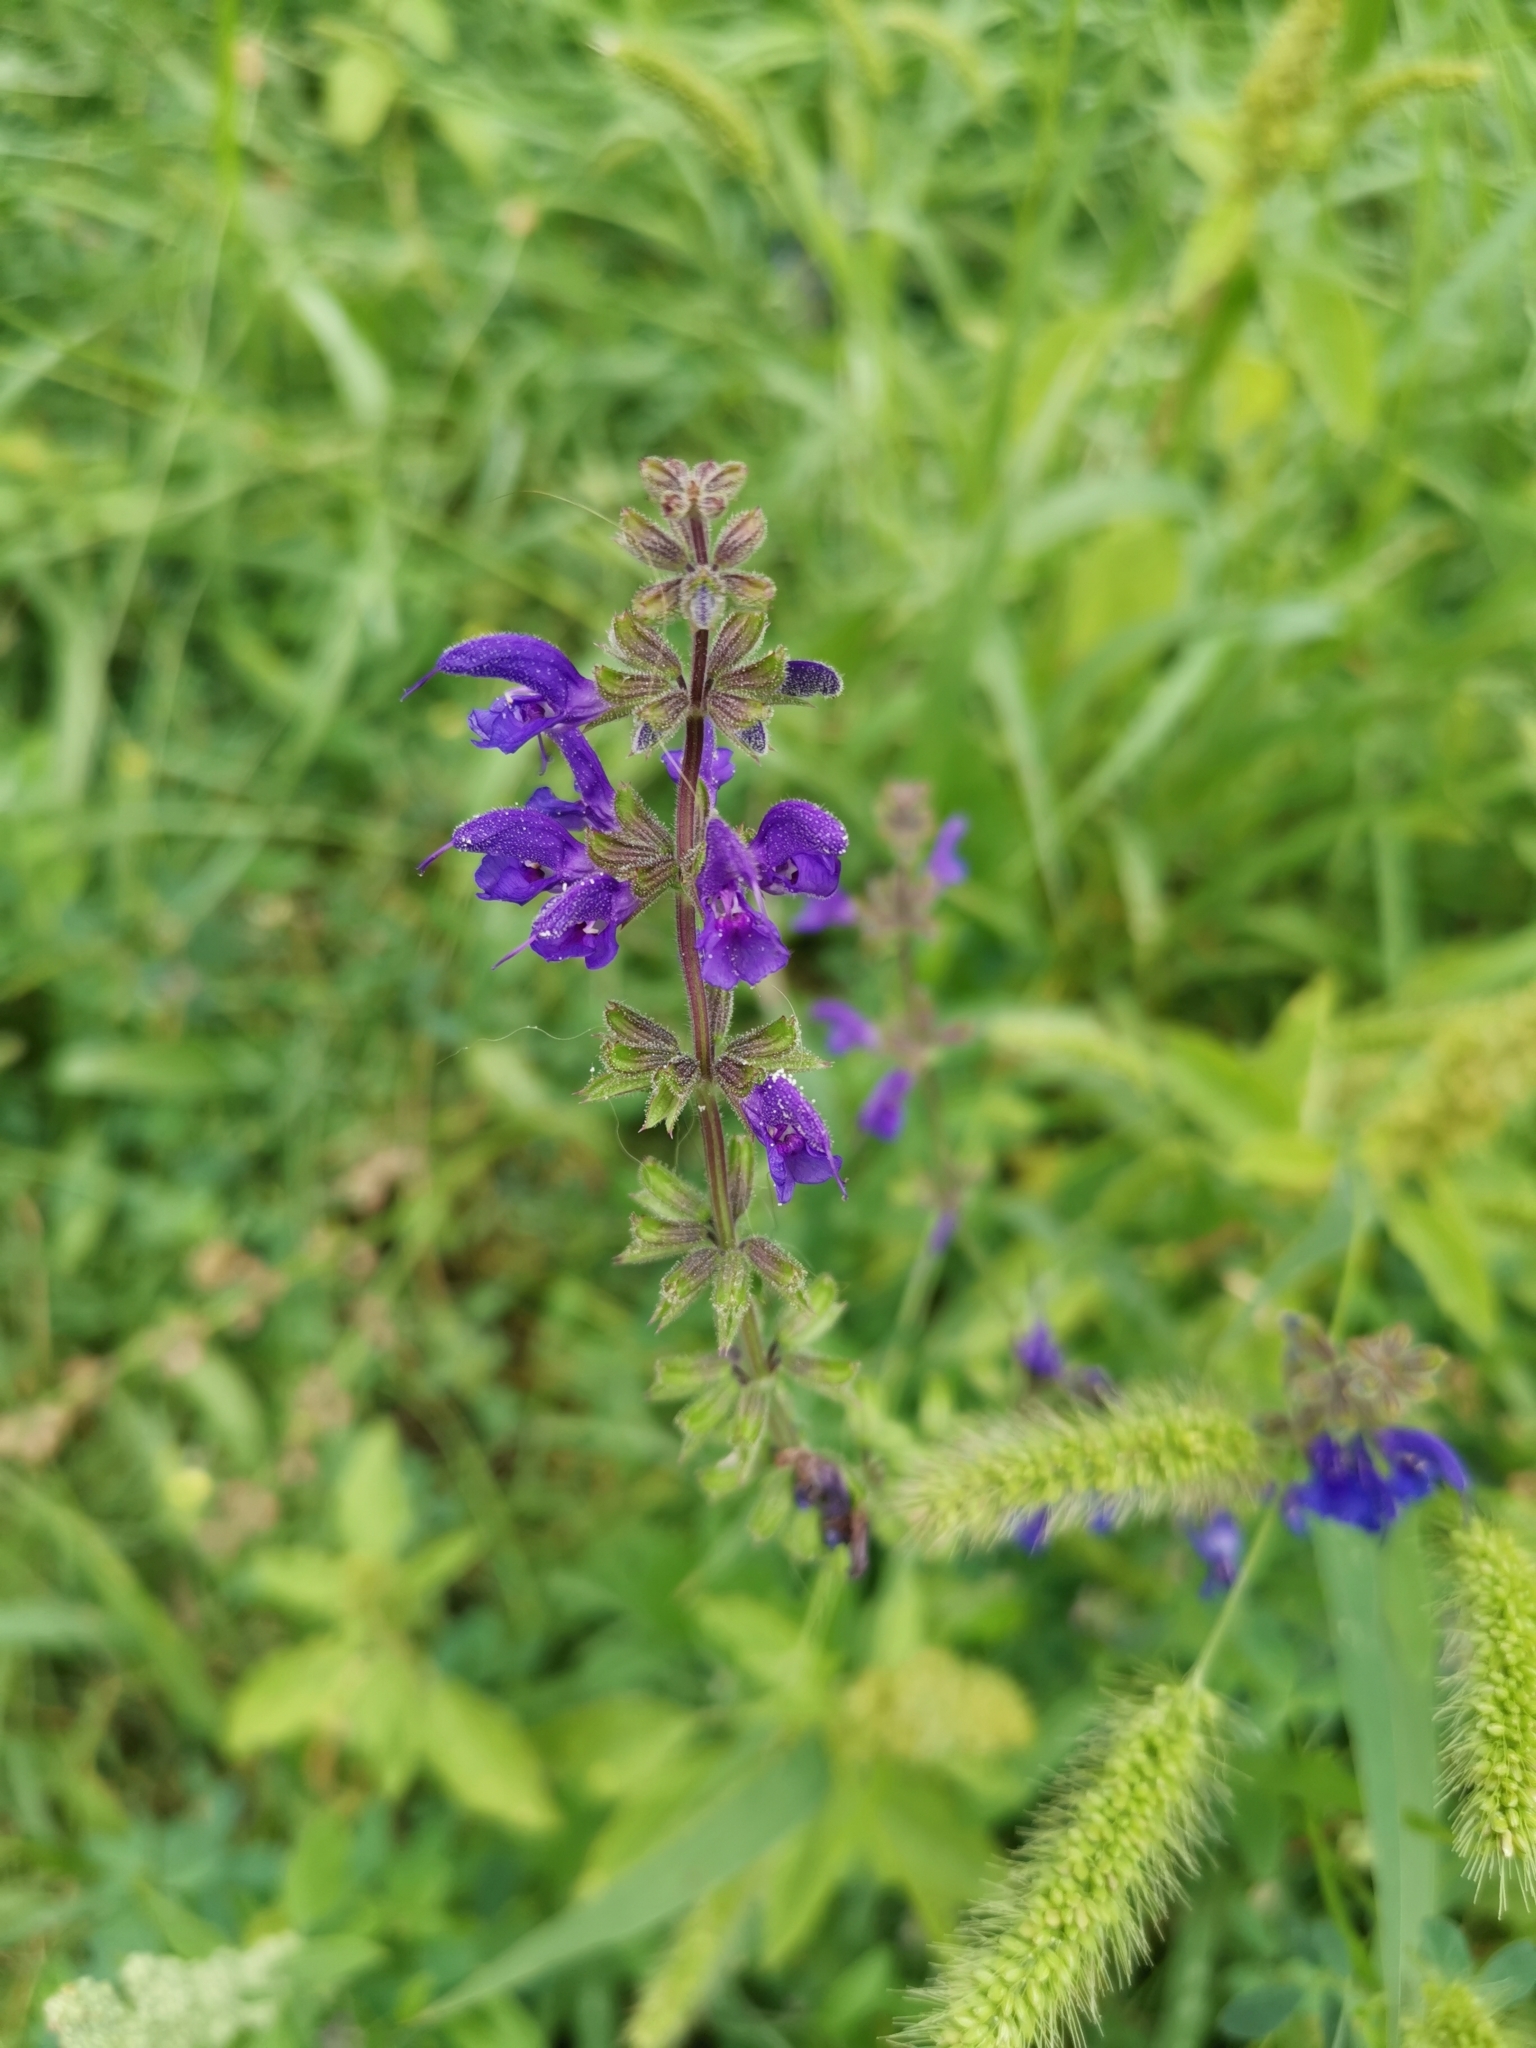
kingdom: Plantae
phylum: Tracheophyta
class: Magnoliopsida
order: Lamiales
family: Lamiaceae
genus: Salvia
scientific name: Salvia pratensis
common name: Meadow sage
